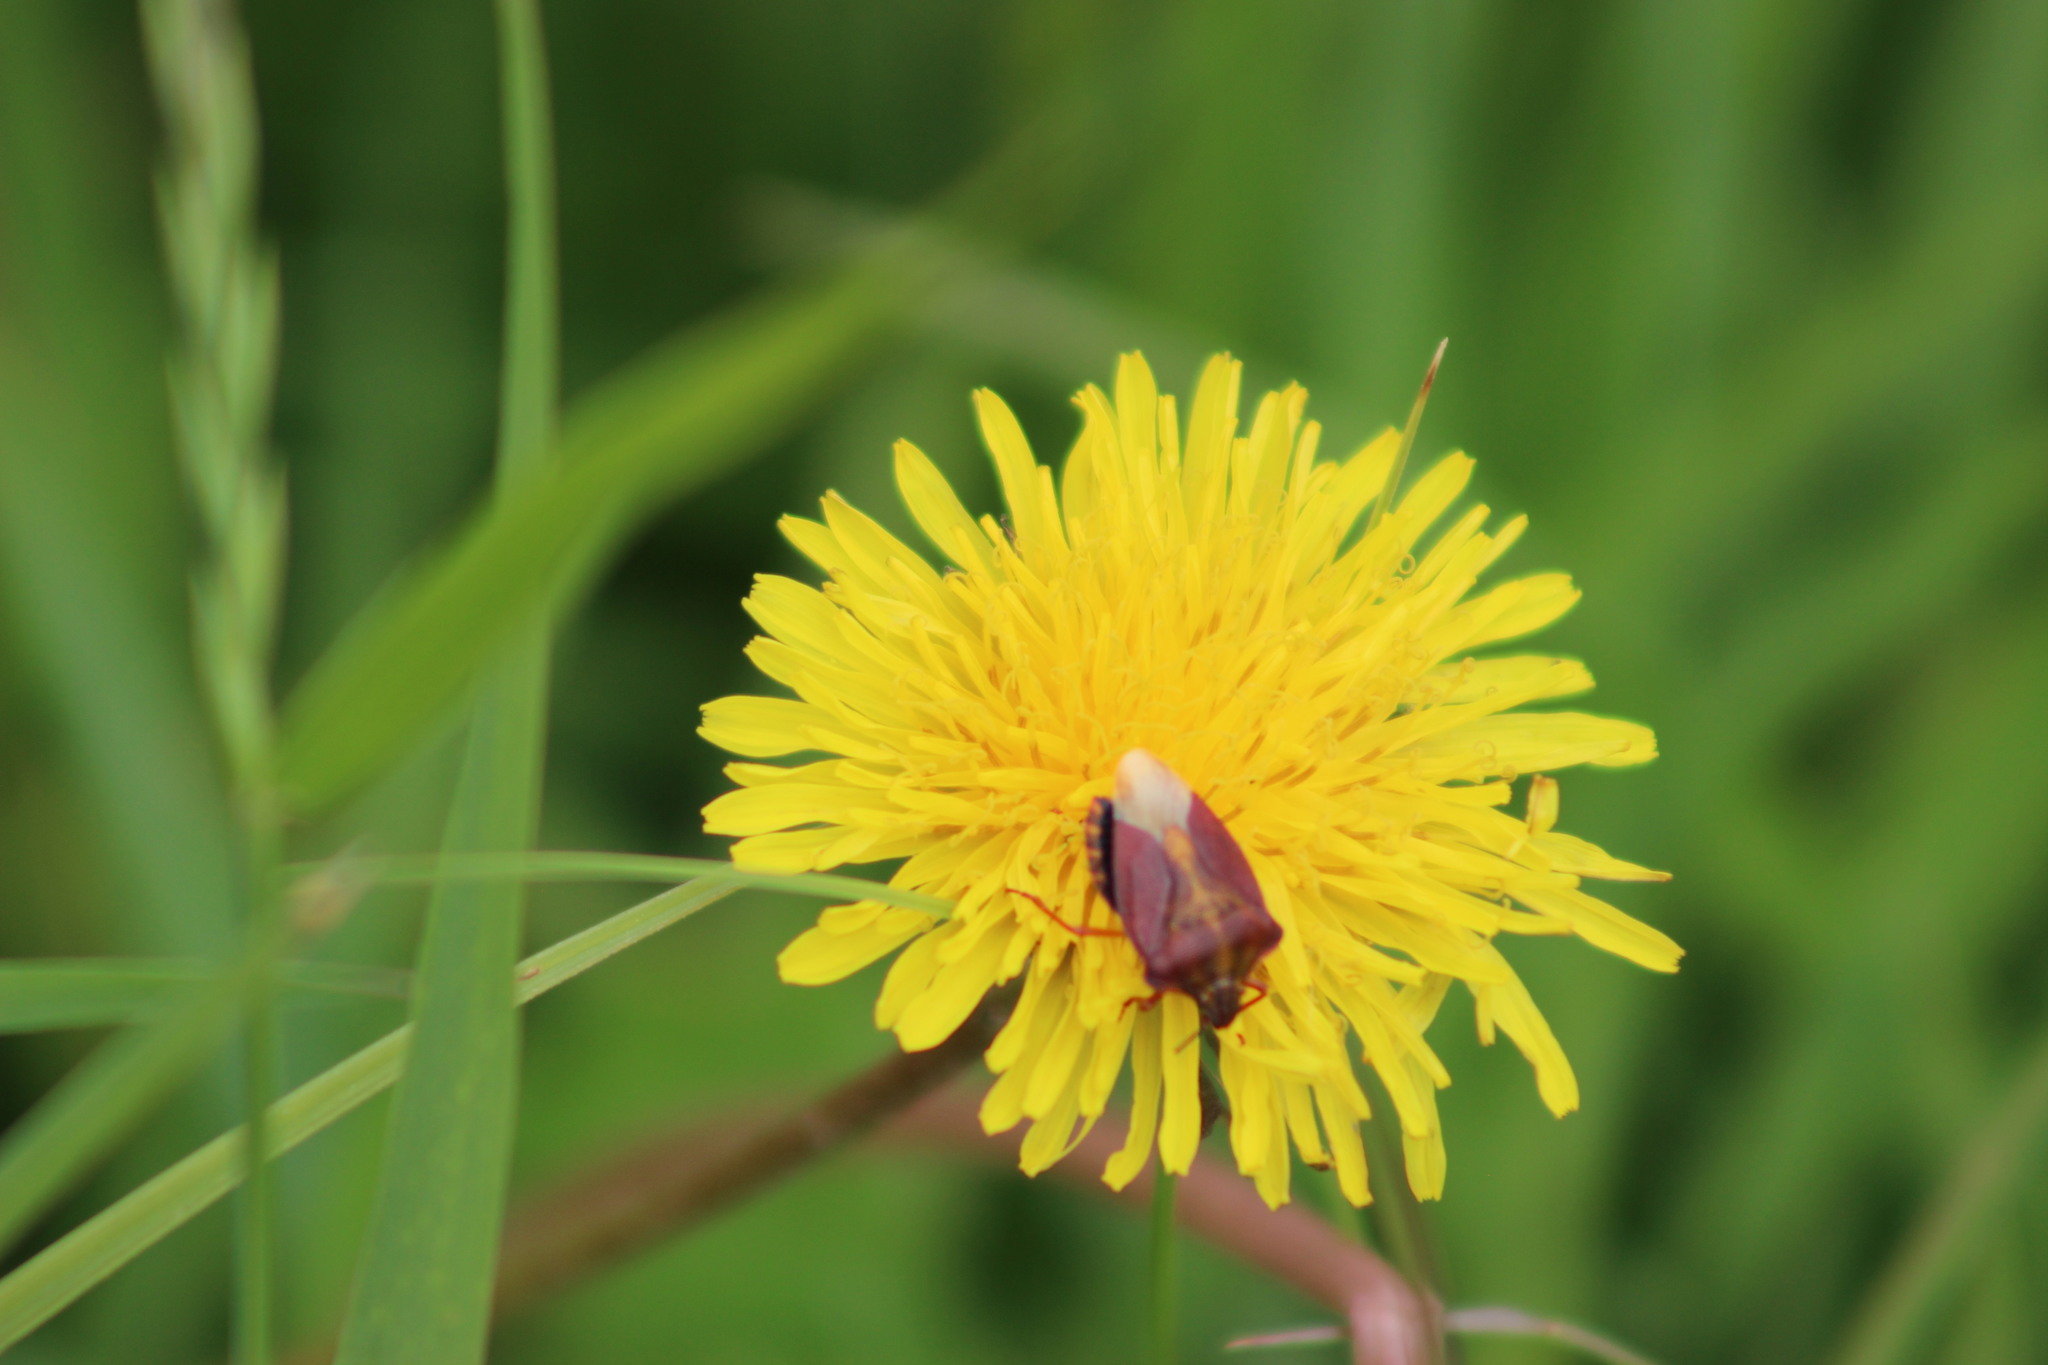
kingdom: Animalia
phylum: Arthropoda
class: Insecta
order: Hemiptera
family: Pentatomidae
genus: Carpocoris
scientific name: Carpocoris purpureipennis
